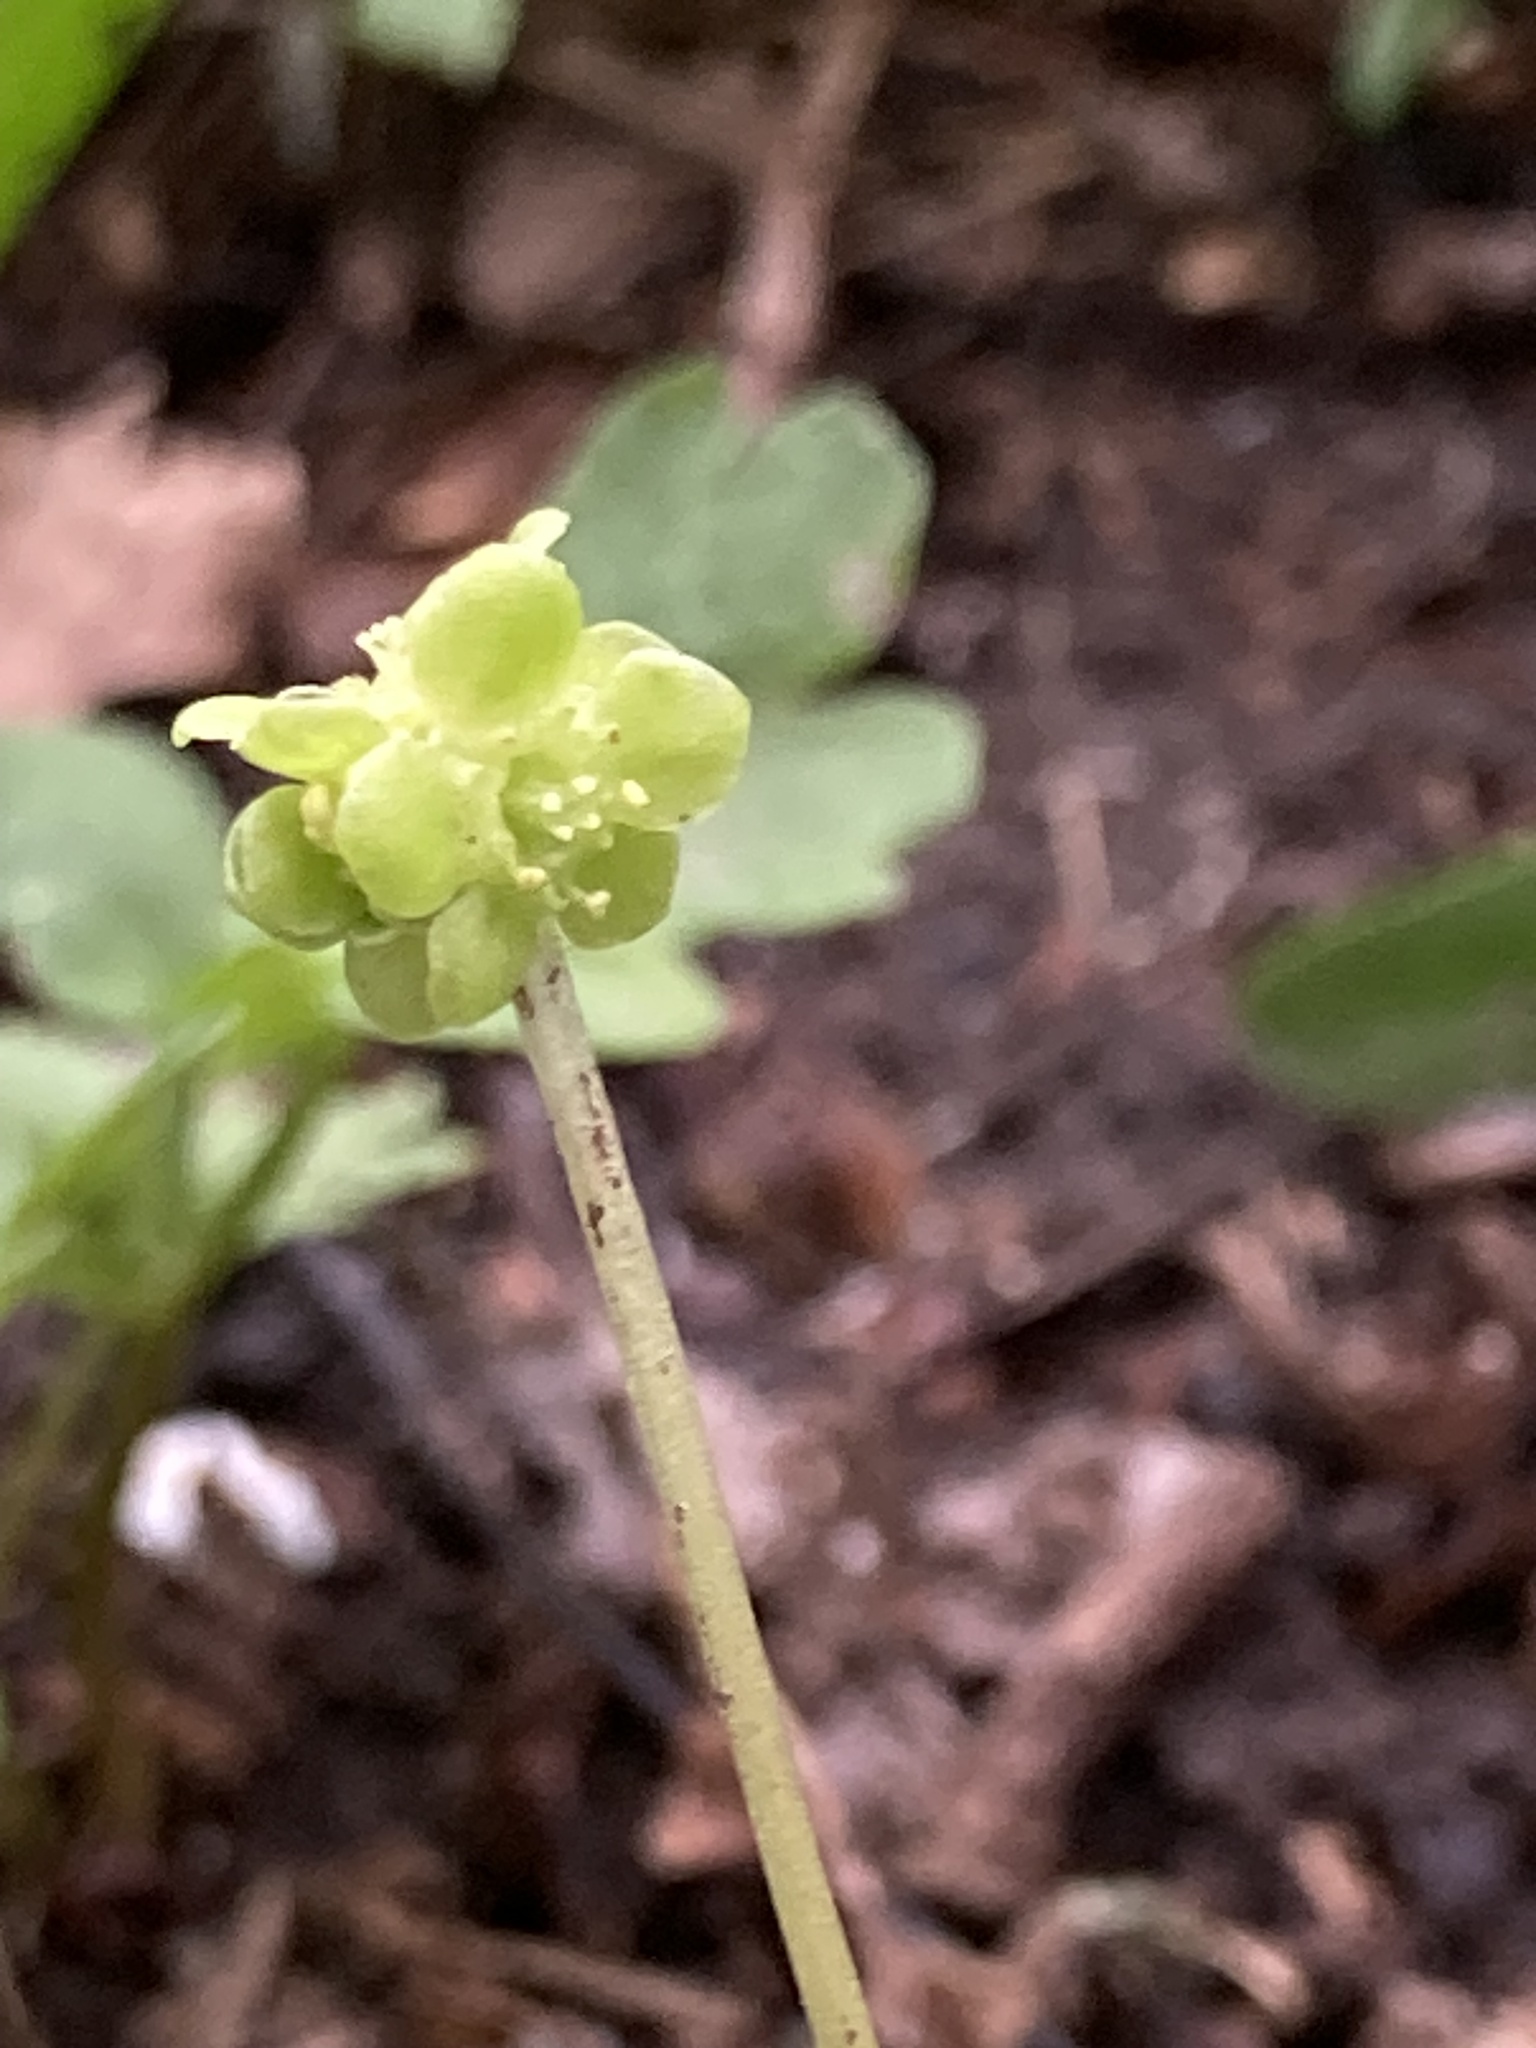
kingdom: Plantae
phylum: Tracheophyta
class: Magnoliopsida
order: Dipsacales
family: Viburnaceae
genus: Adoxa
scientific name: Adoxa moschatellina
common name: Moschatel
